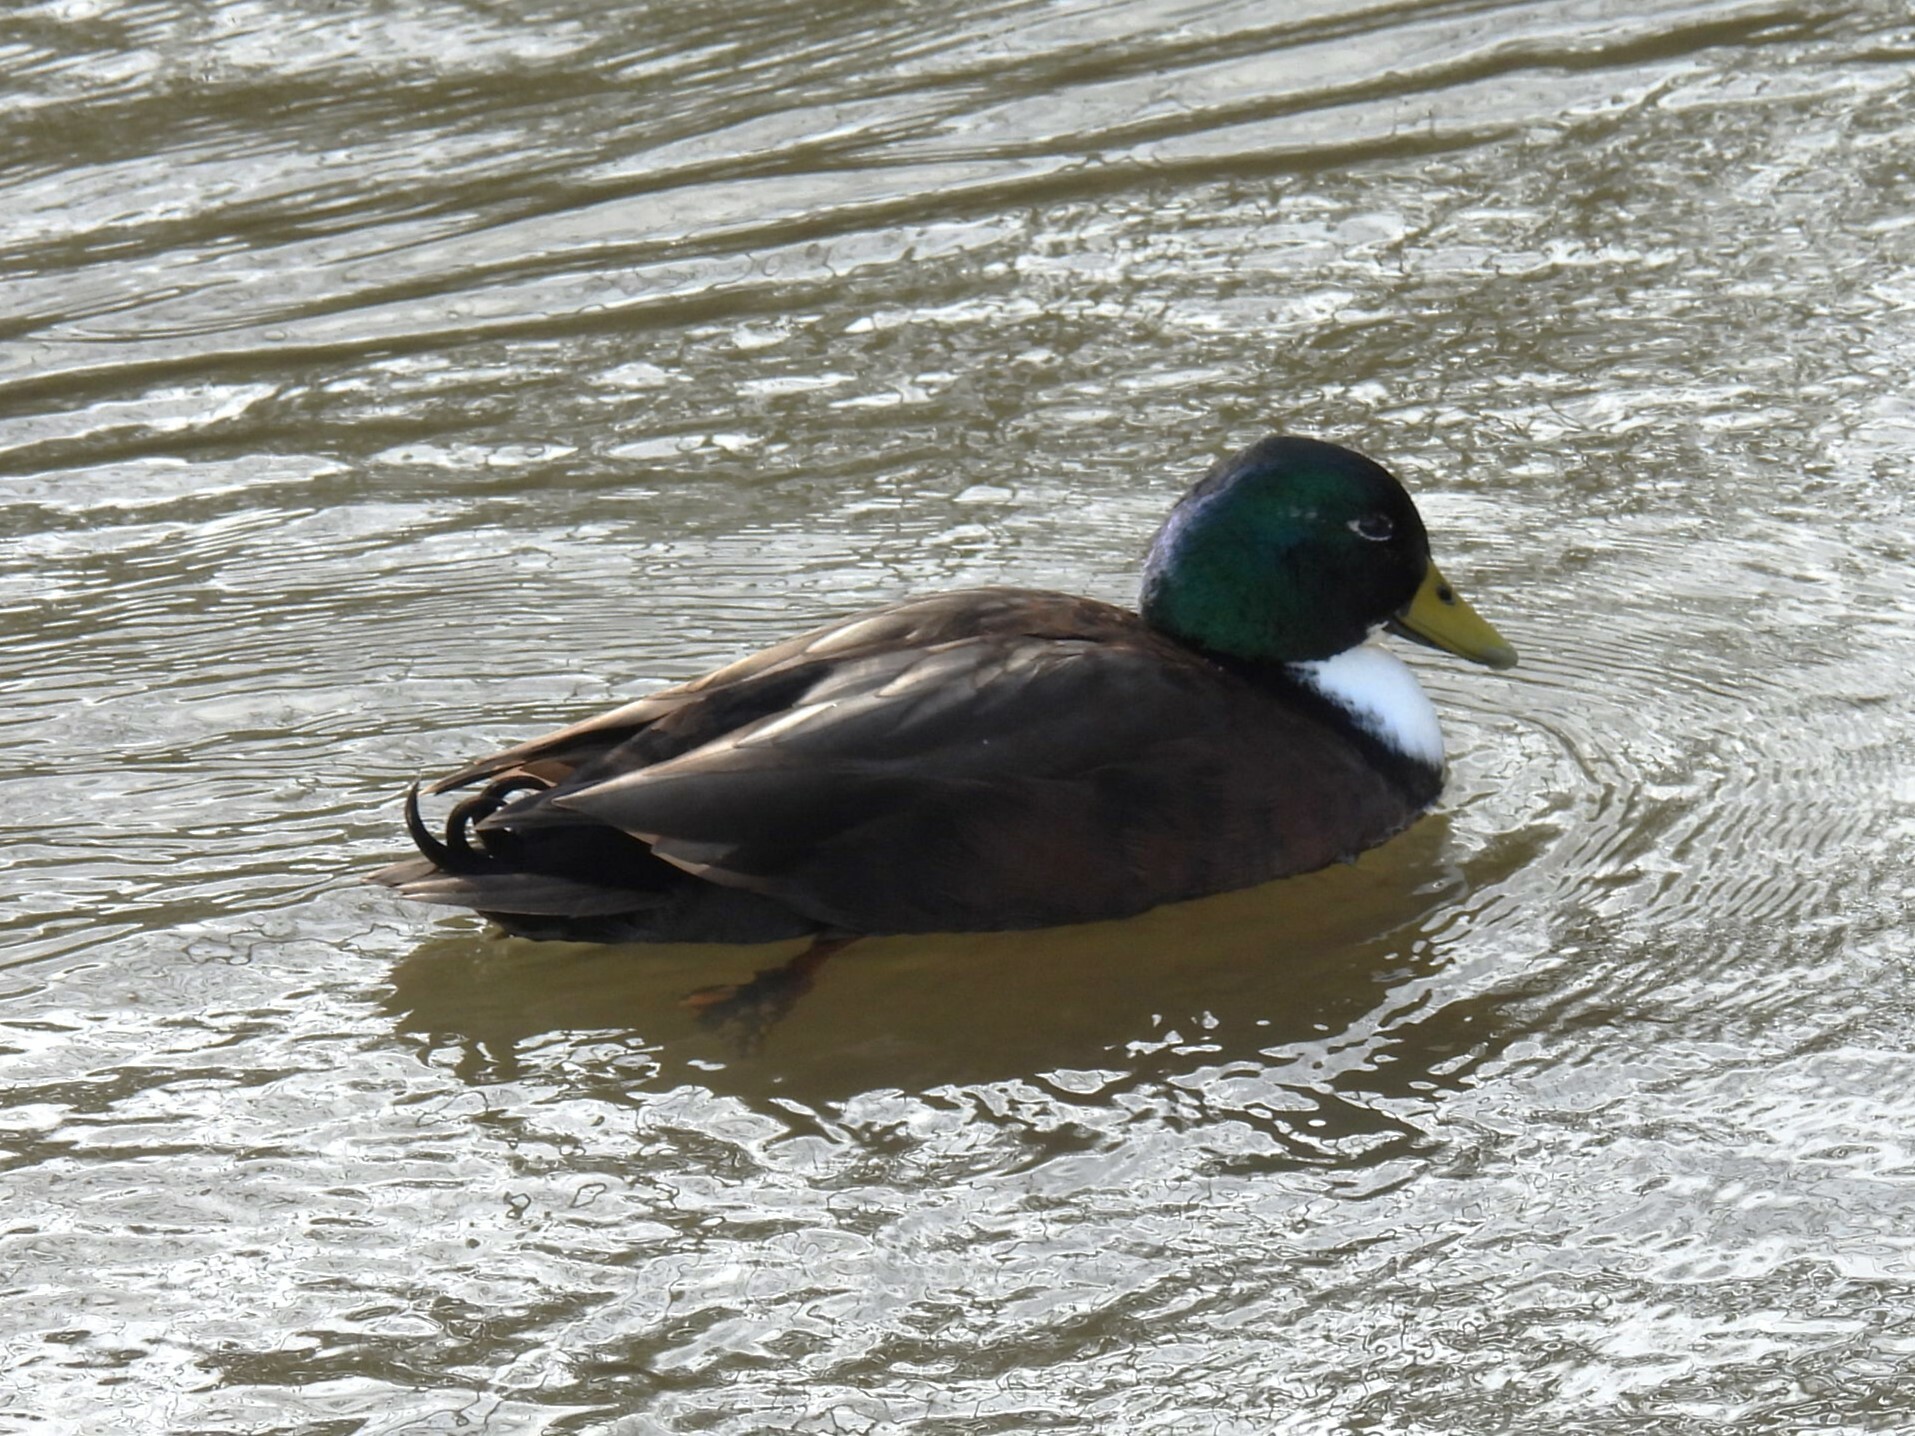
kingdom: Animalia
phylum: Chordata
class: Aves
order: Anseriformes
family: Anatidae
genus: Anas
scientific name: Anas platyrhynchos
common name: Mallard
